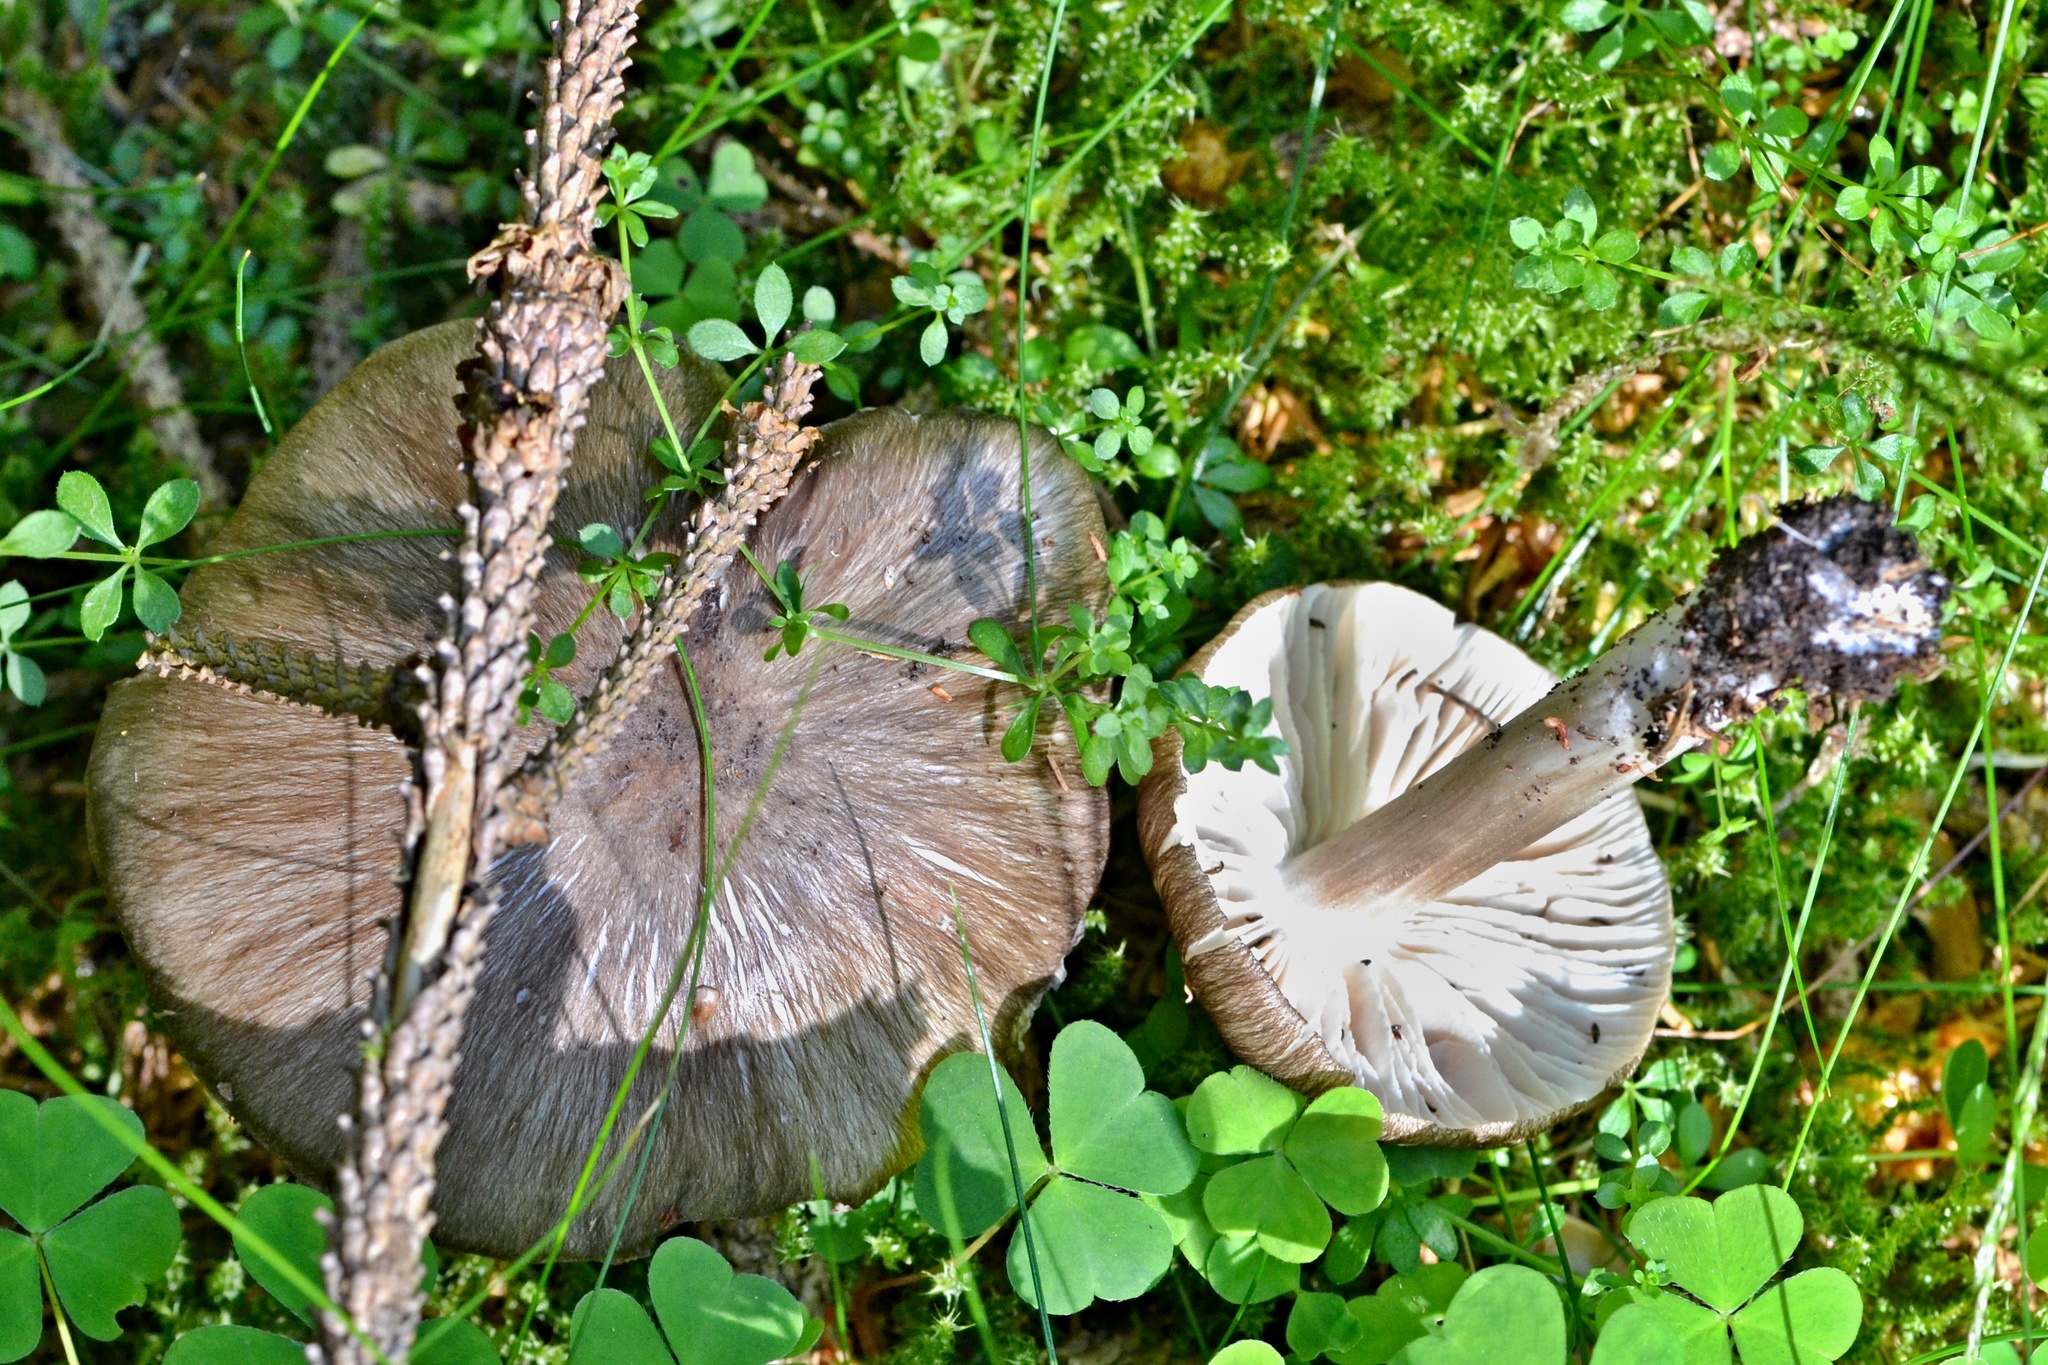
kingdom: Fungi
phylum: Basidiomycota
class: Agaricomycetes
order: Agaricales
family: Tricholomataceae
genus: Megacollybia
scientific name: Megacollybia platyphylla
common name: Whitelaced shank
